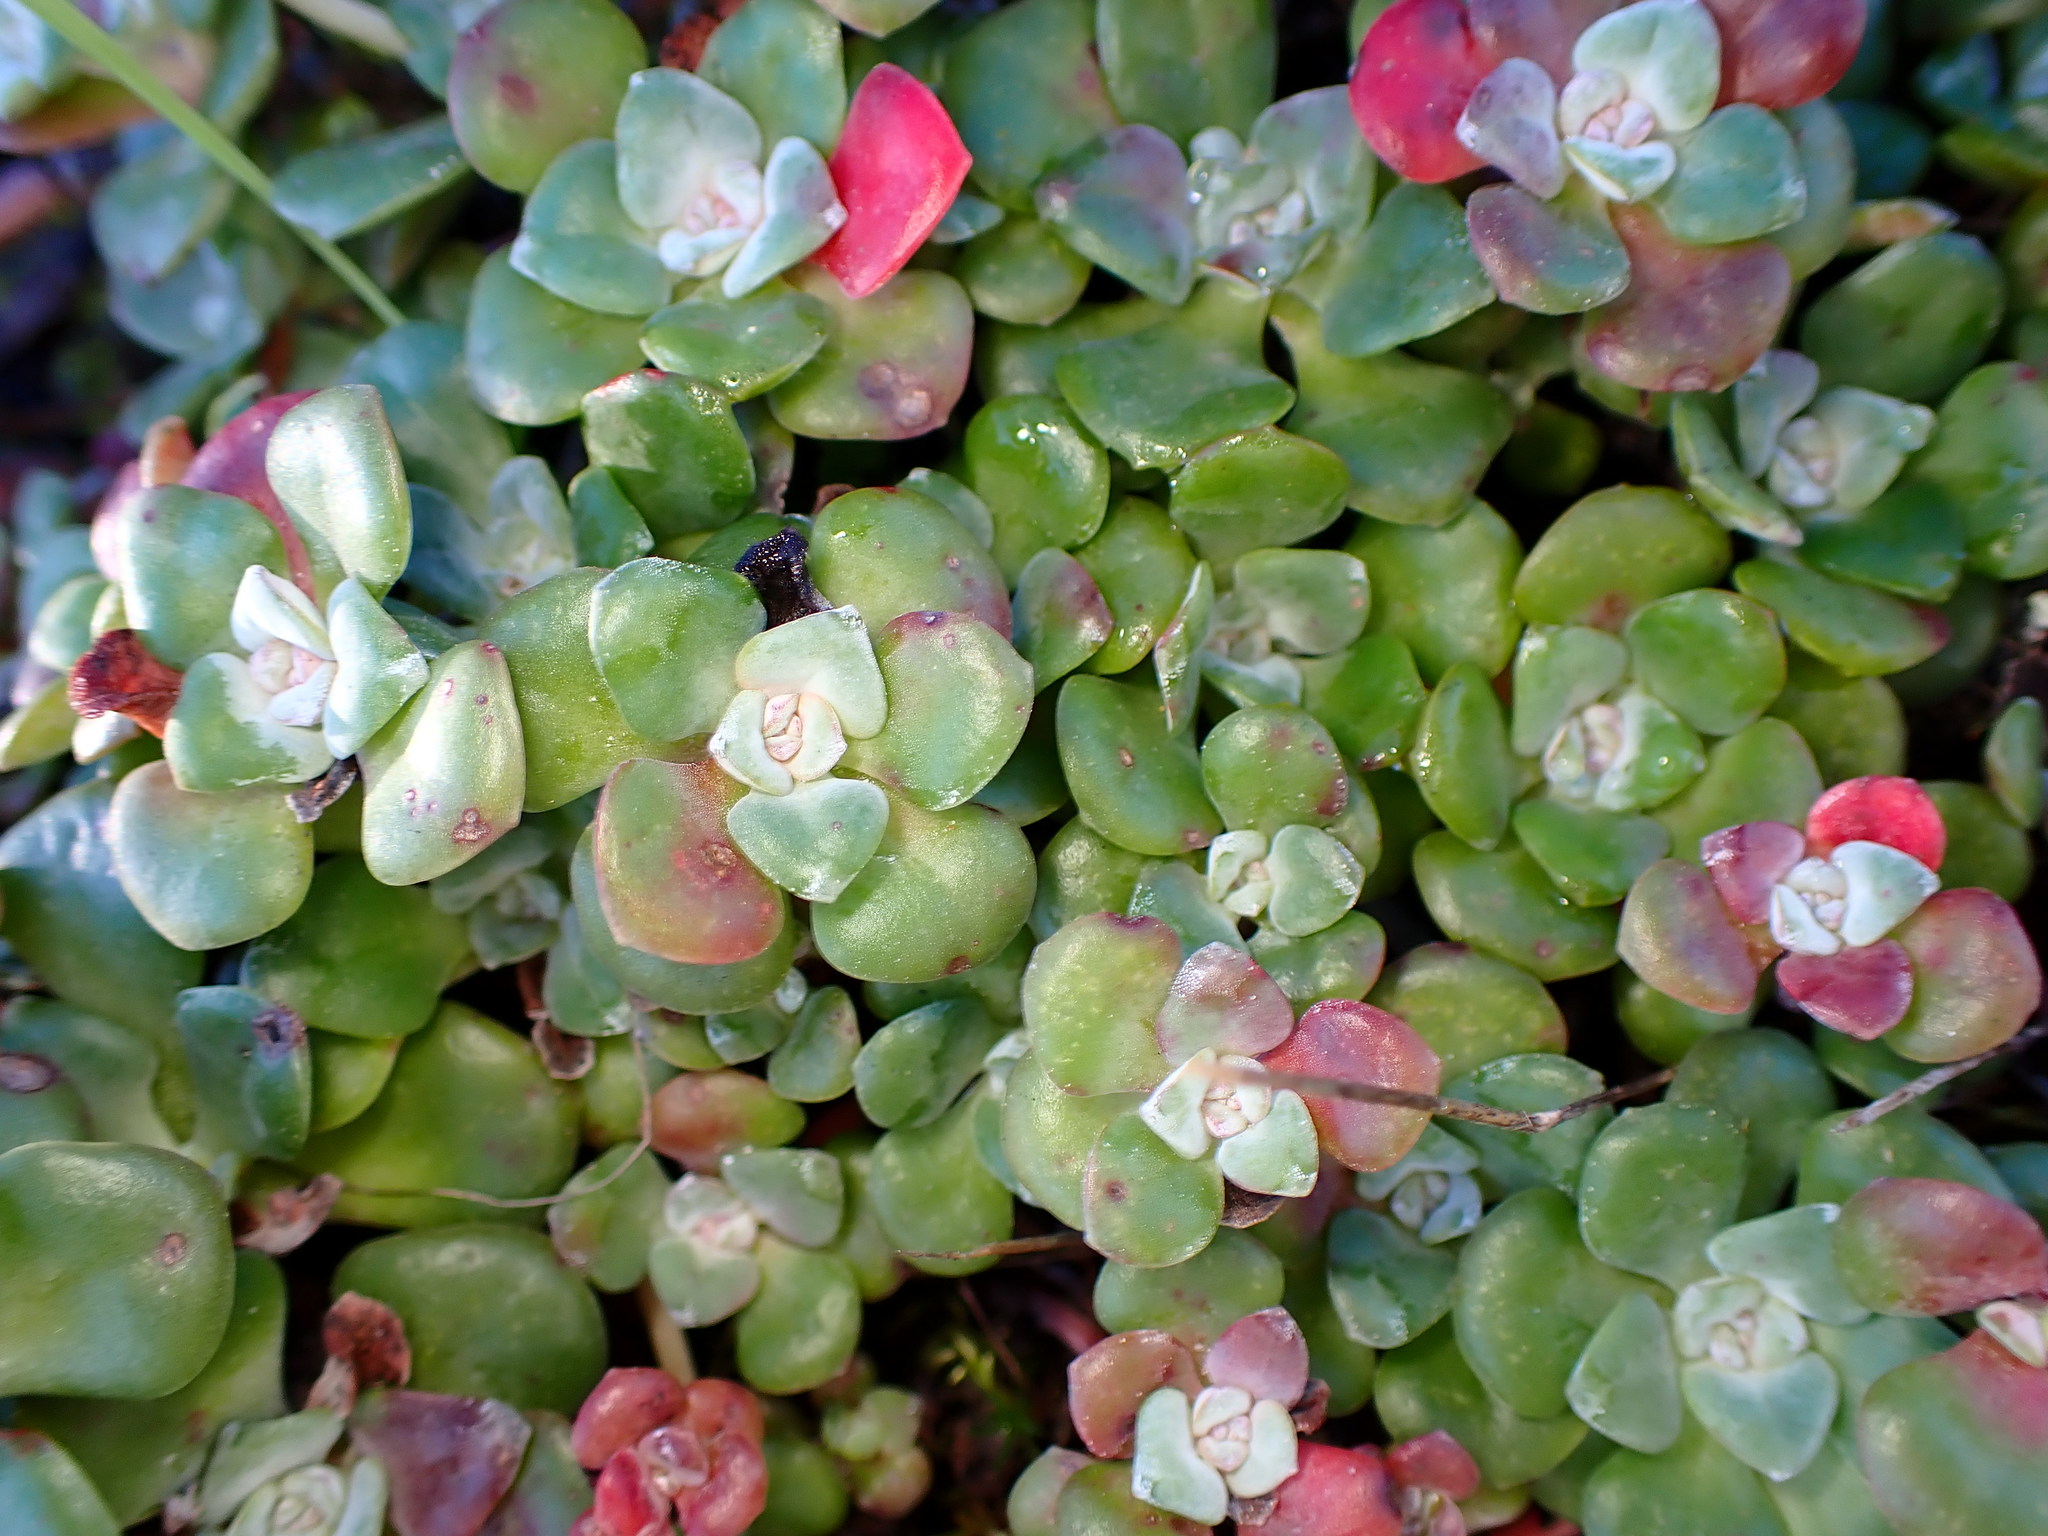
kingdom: Plantae
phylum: Tracheophyta
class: Magnoliopsida
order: Saxifragales
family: Crassulaceae
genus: Sedum
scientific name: Sedum spathulifolium
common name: Colorado stonecrop
